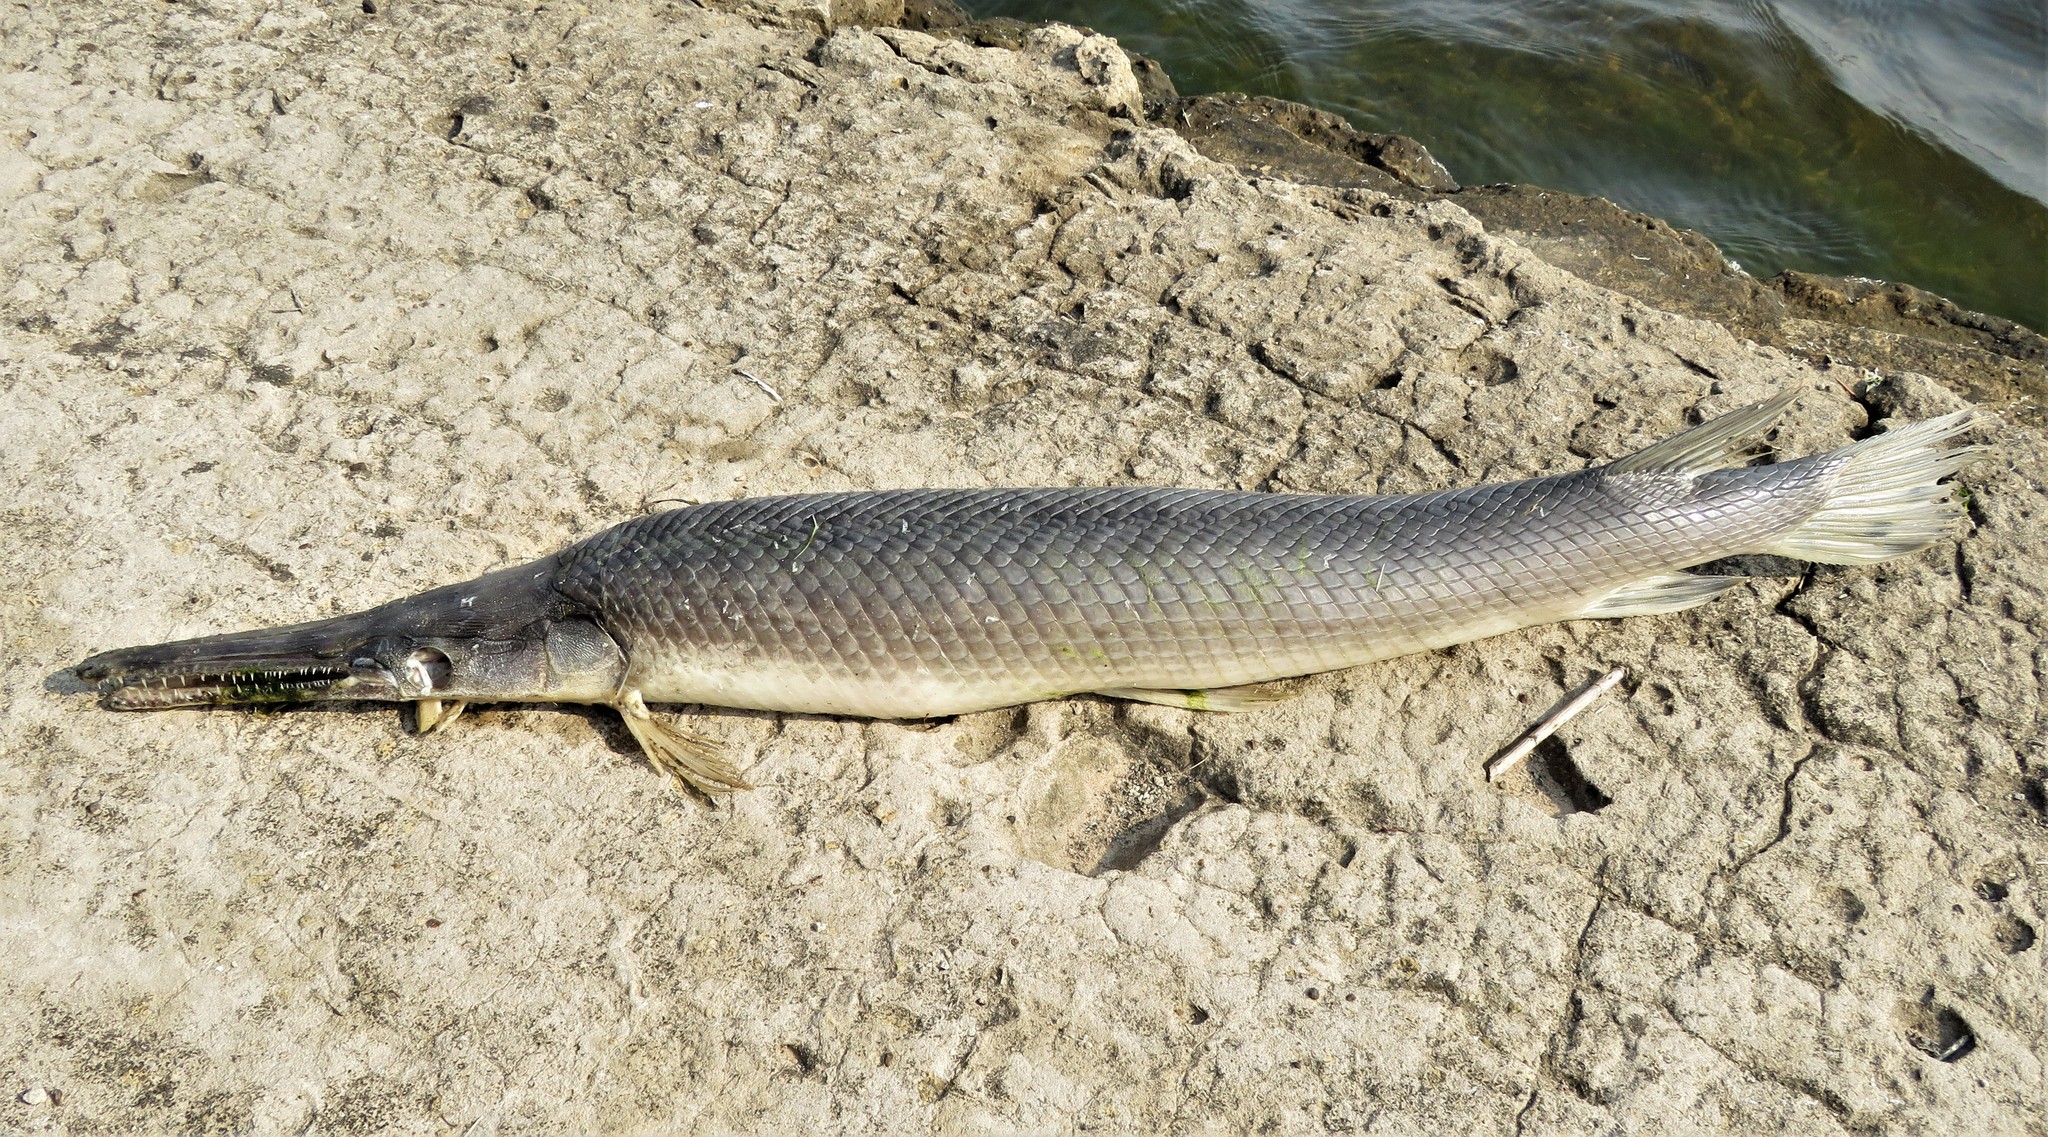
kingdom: Animalia
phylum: Chordata
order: Lepisosteiformes
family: Lepisosteidae
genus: Lepisosteus
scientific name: Lepisosteus oculatus
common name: Spotted gar
